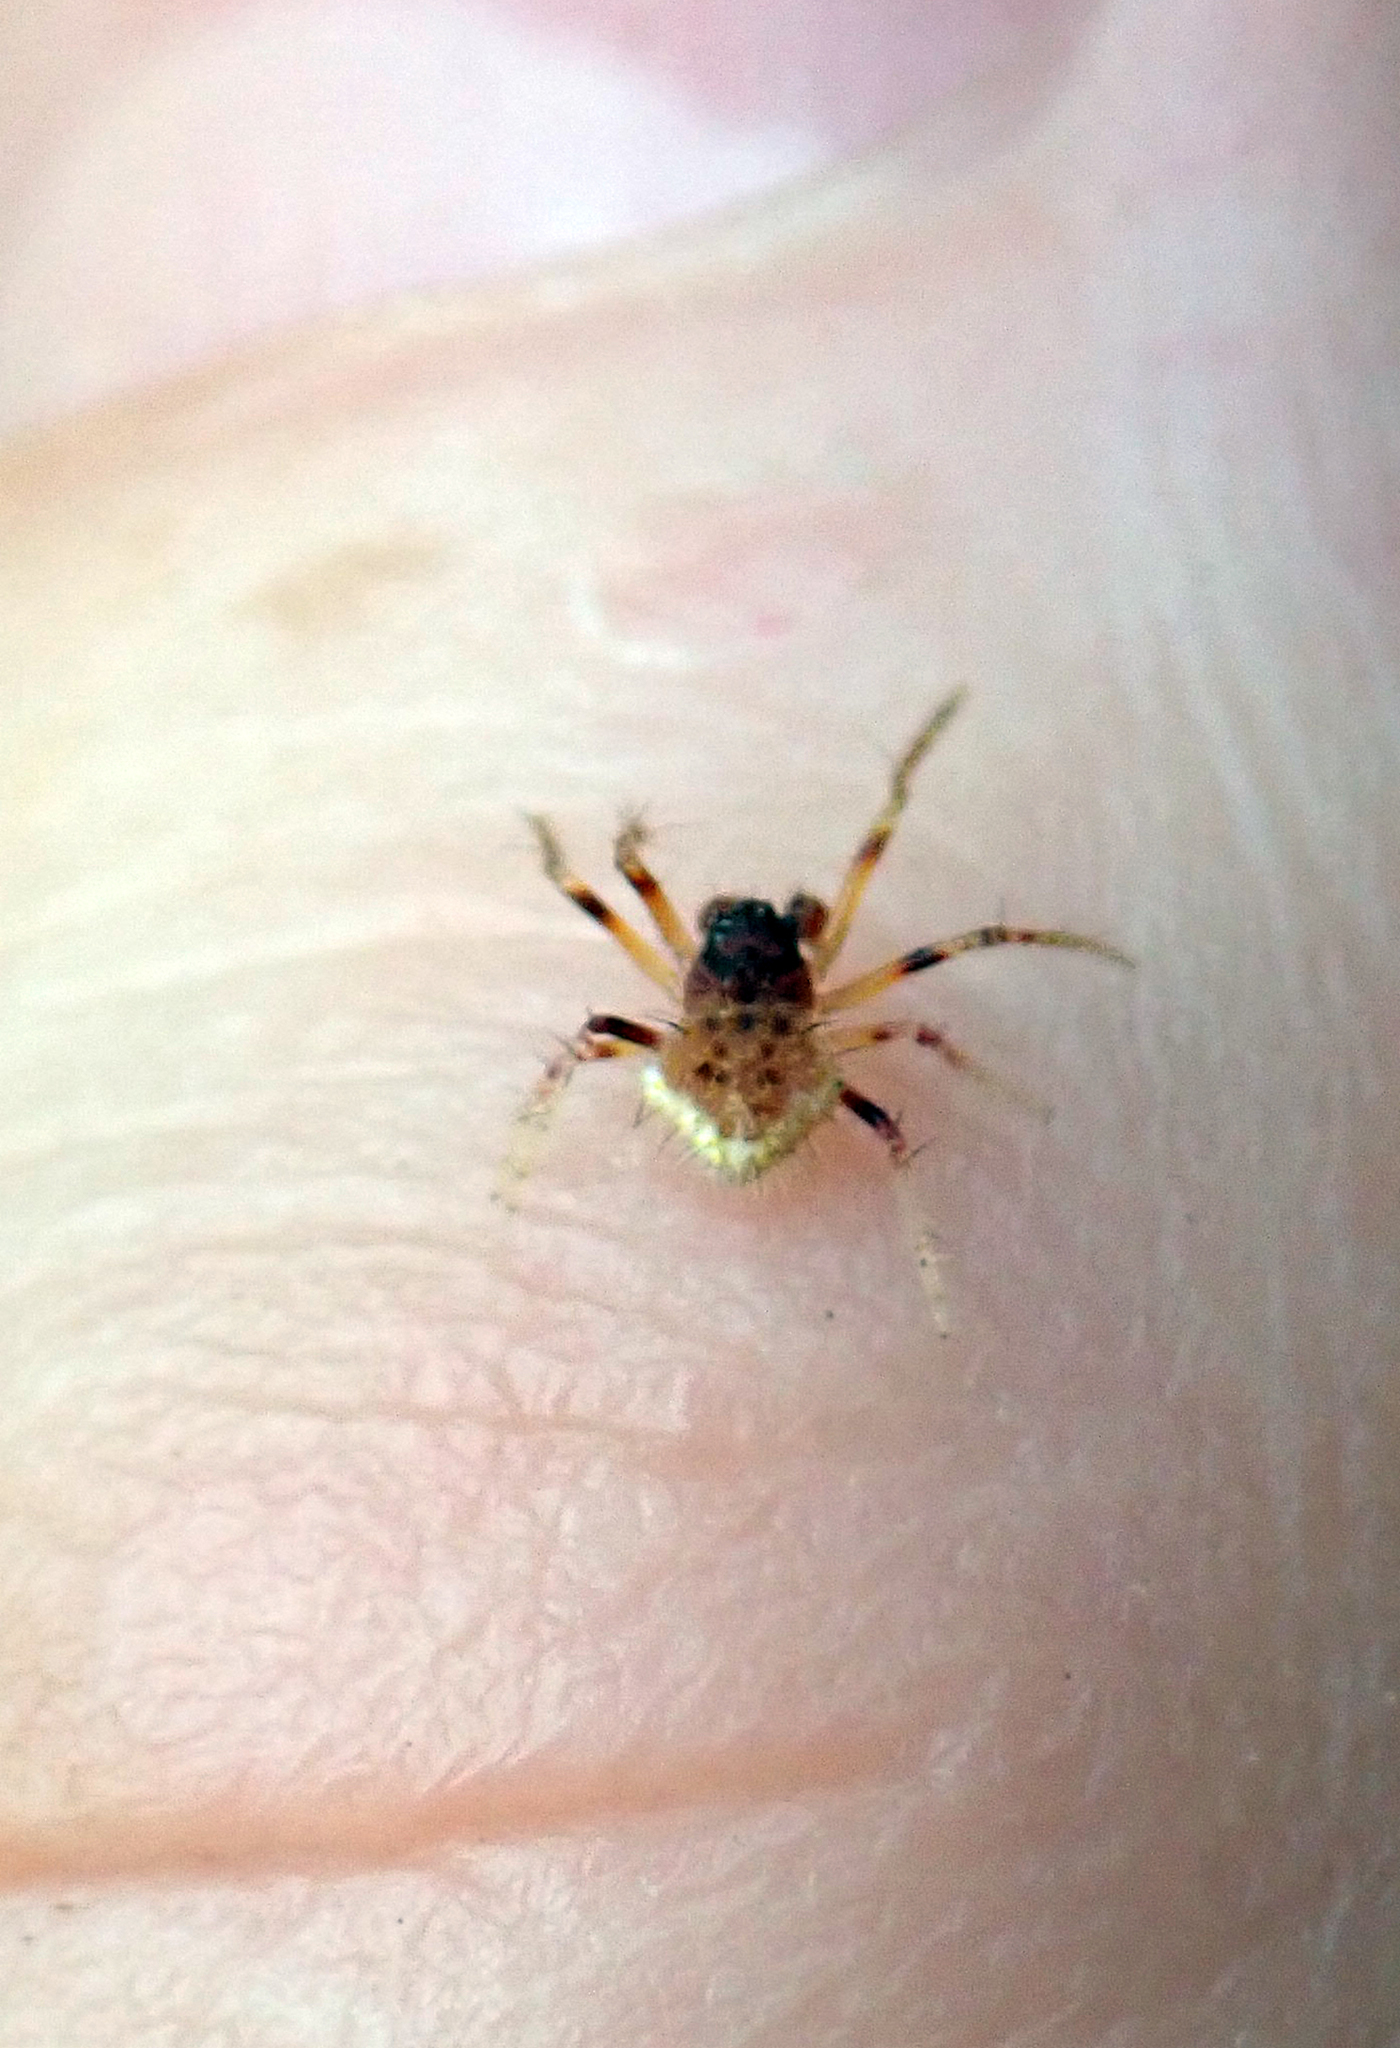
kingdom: Animalia
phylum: Arthropoda
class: Arachnida
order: Araneae
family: Araneidae
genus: Poecilopachys
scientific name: Poecilopachys australasia
